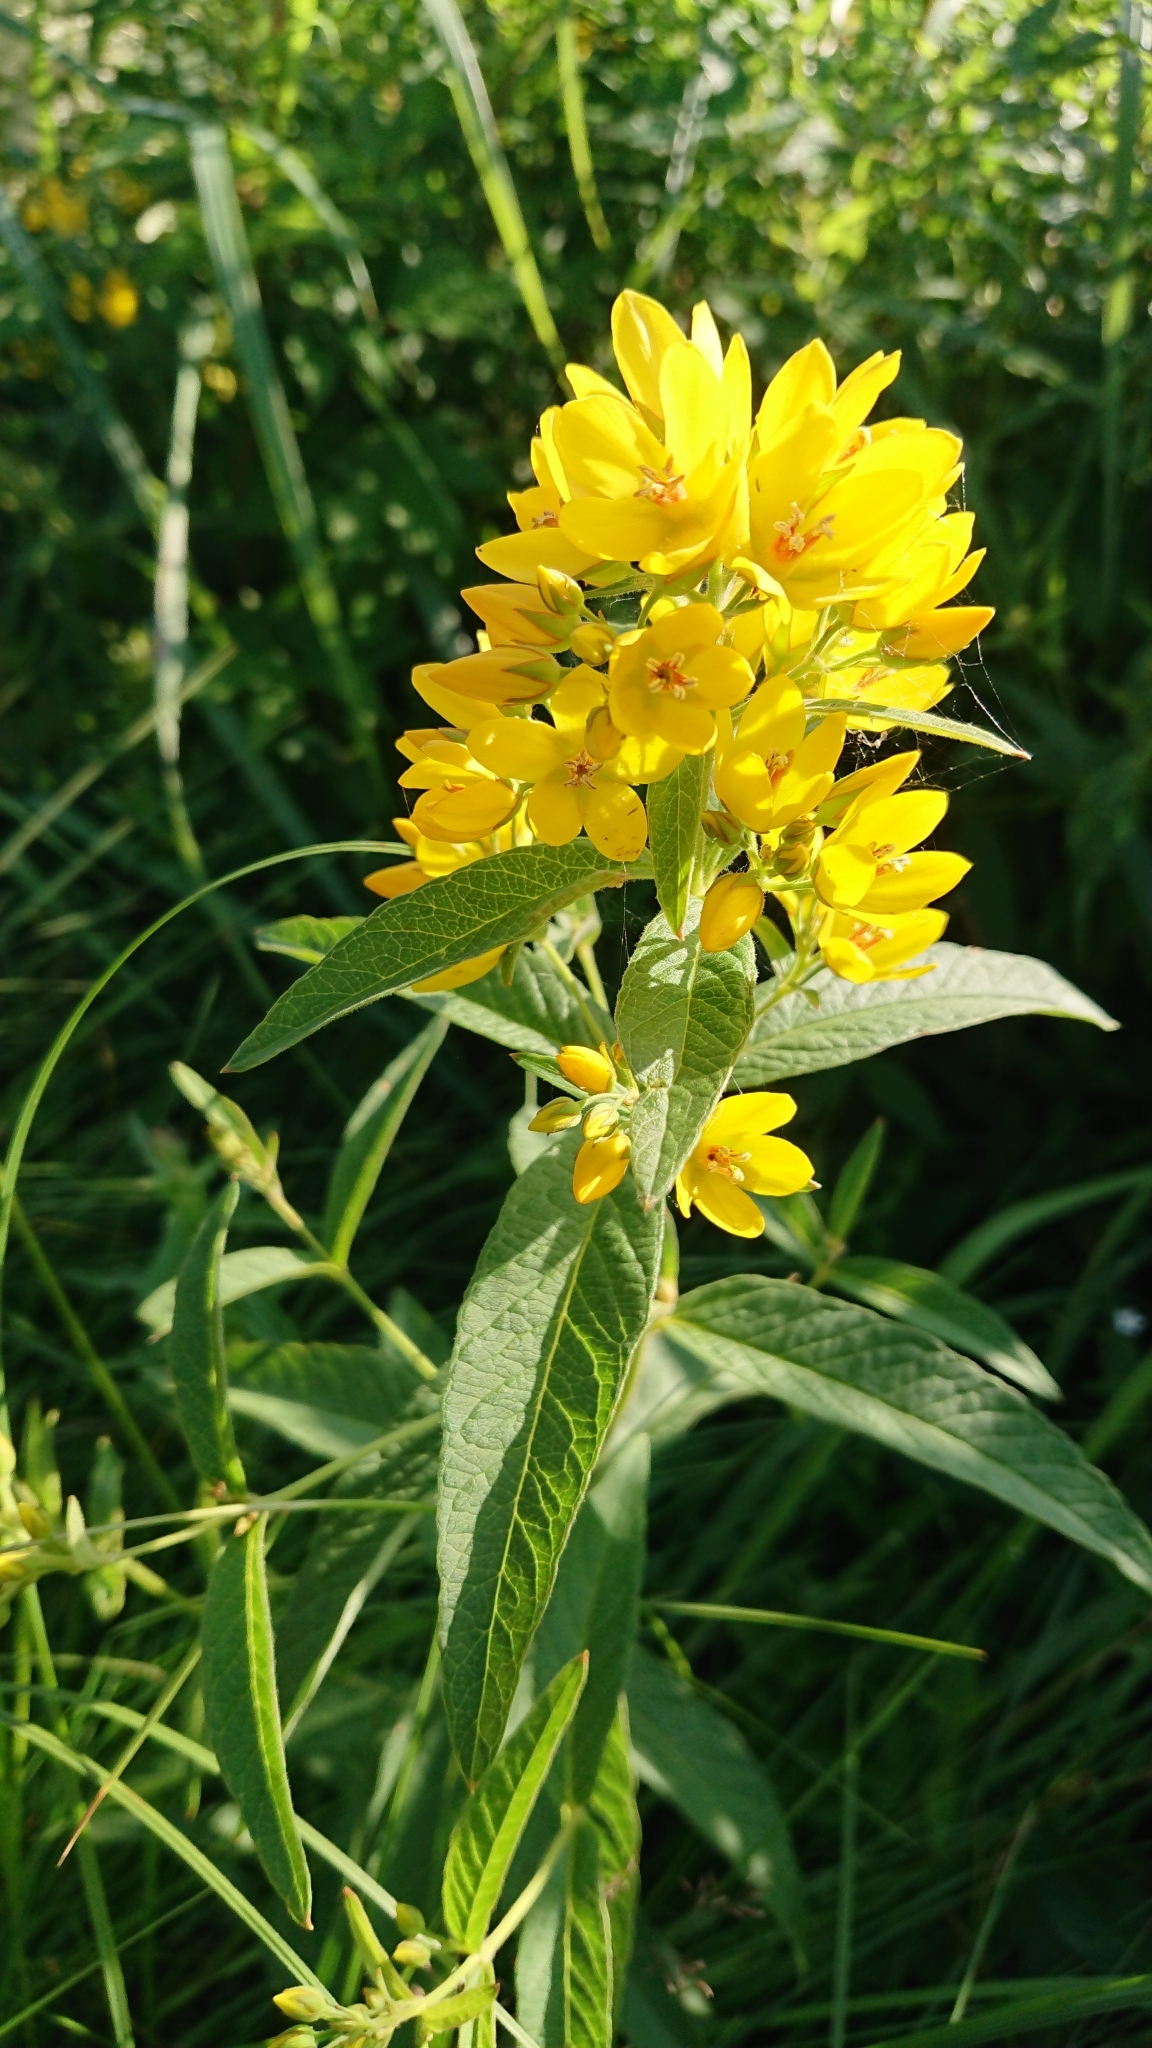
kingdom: Plantae
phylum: Tracheophyta
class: Magnoliopsida
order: Ericales
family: Primulaceae
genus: Lysimachia
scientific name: Lysimachia vulgaris
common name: Yellow loosestrife
